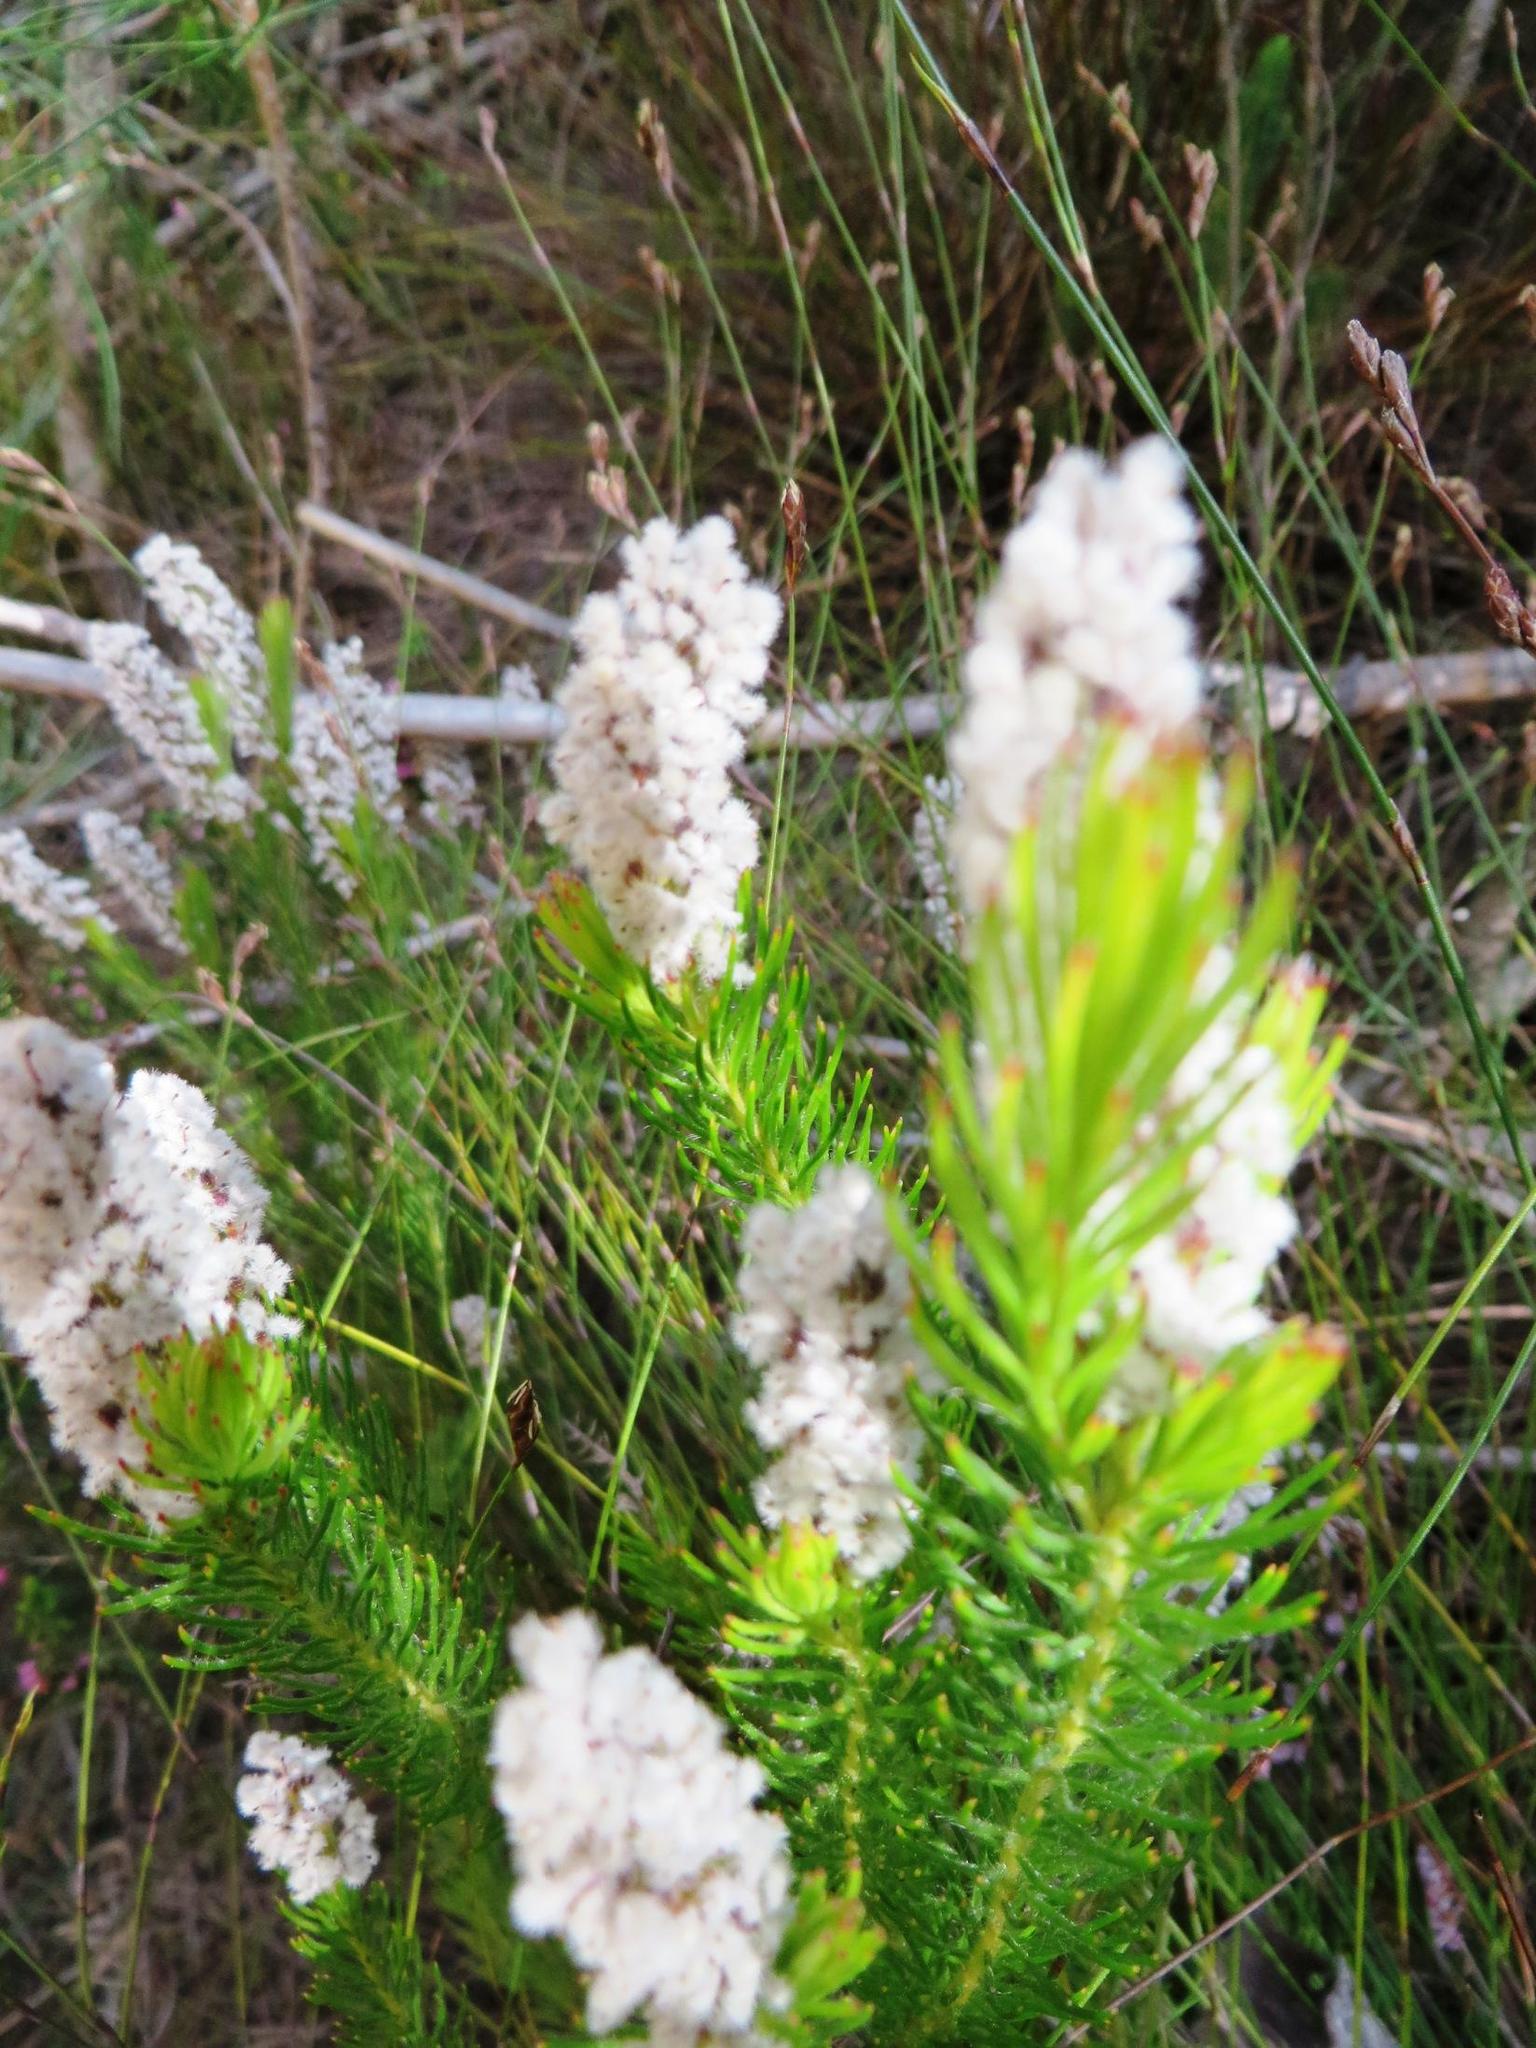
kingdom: Plantae
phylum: Tracheophyta
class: Magnoliopsida
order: Proteales
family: Proteaceae
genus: Spatalla
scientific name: Spatalla mollis
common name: Woolly spoon
